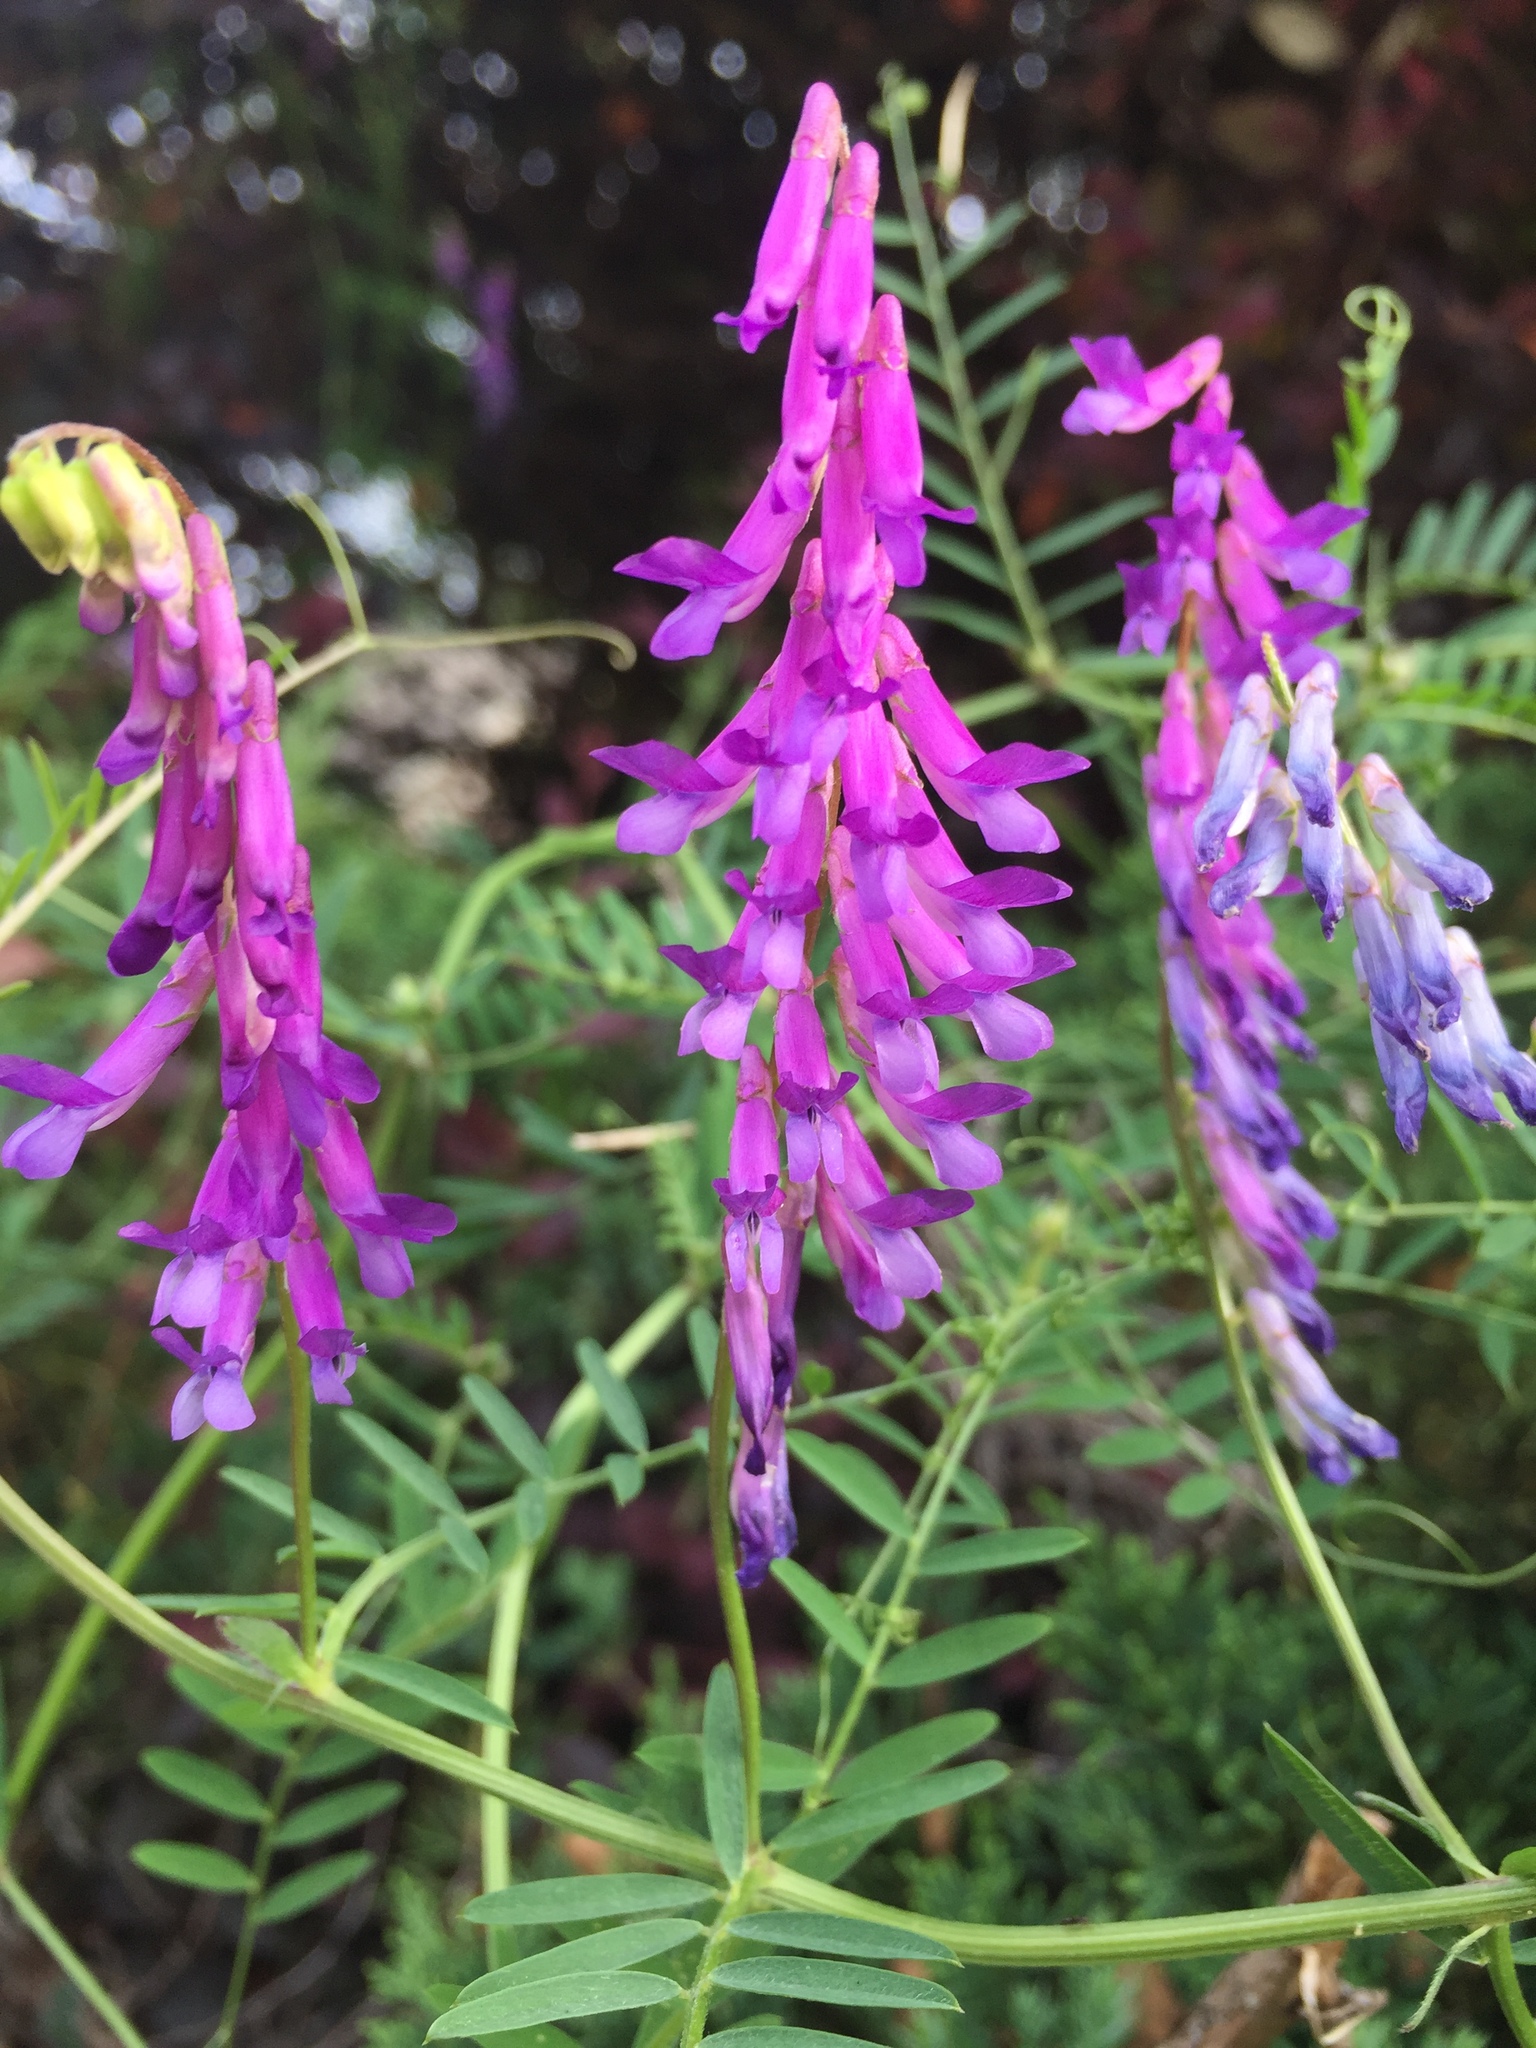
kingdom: Plantae
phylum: Tracheophyta
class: Magnoliopsida
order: Fabales
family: Fabaceae
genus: Vicia
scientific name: Vicia villosa
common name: Fodder vetch
